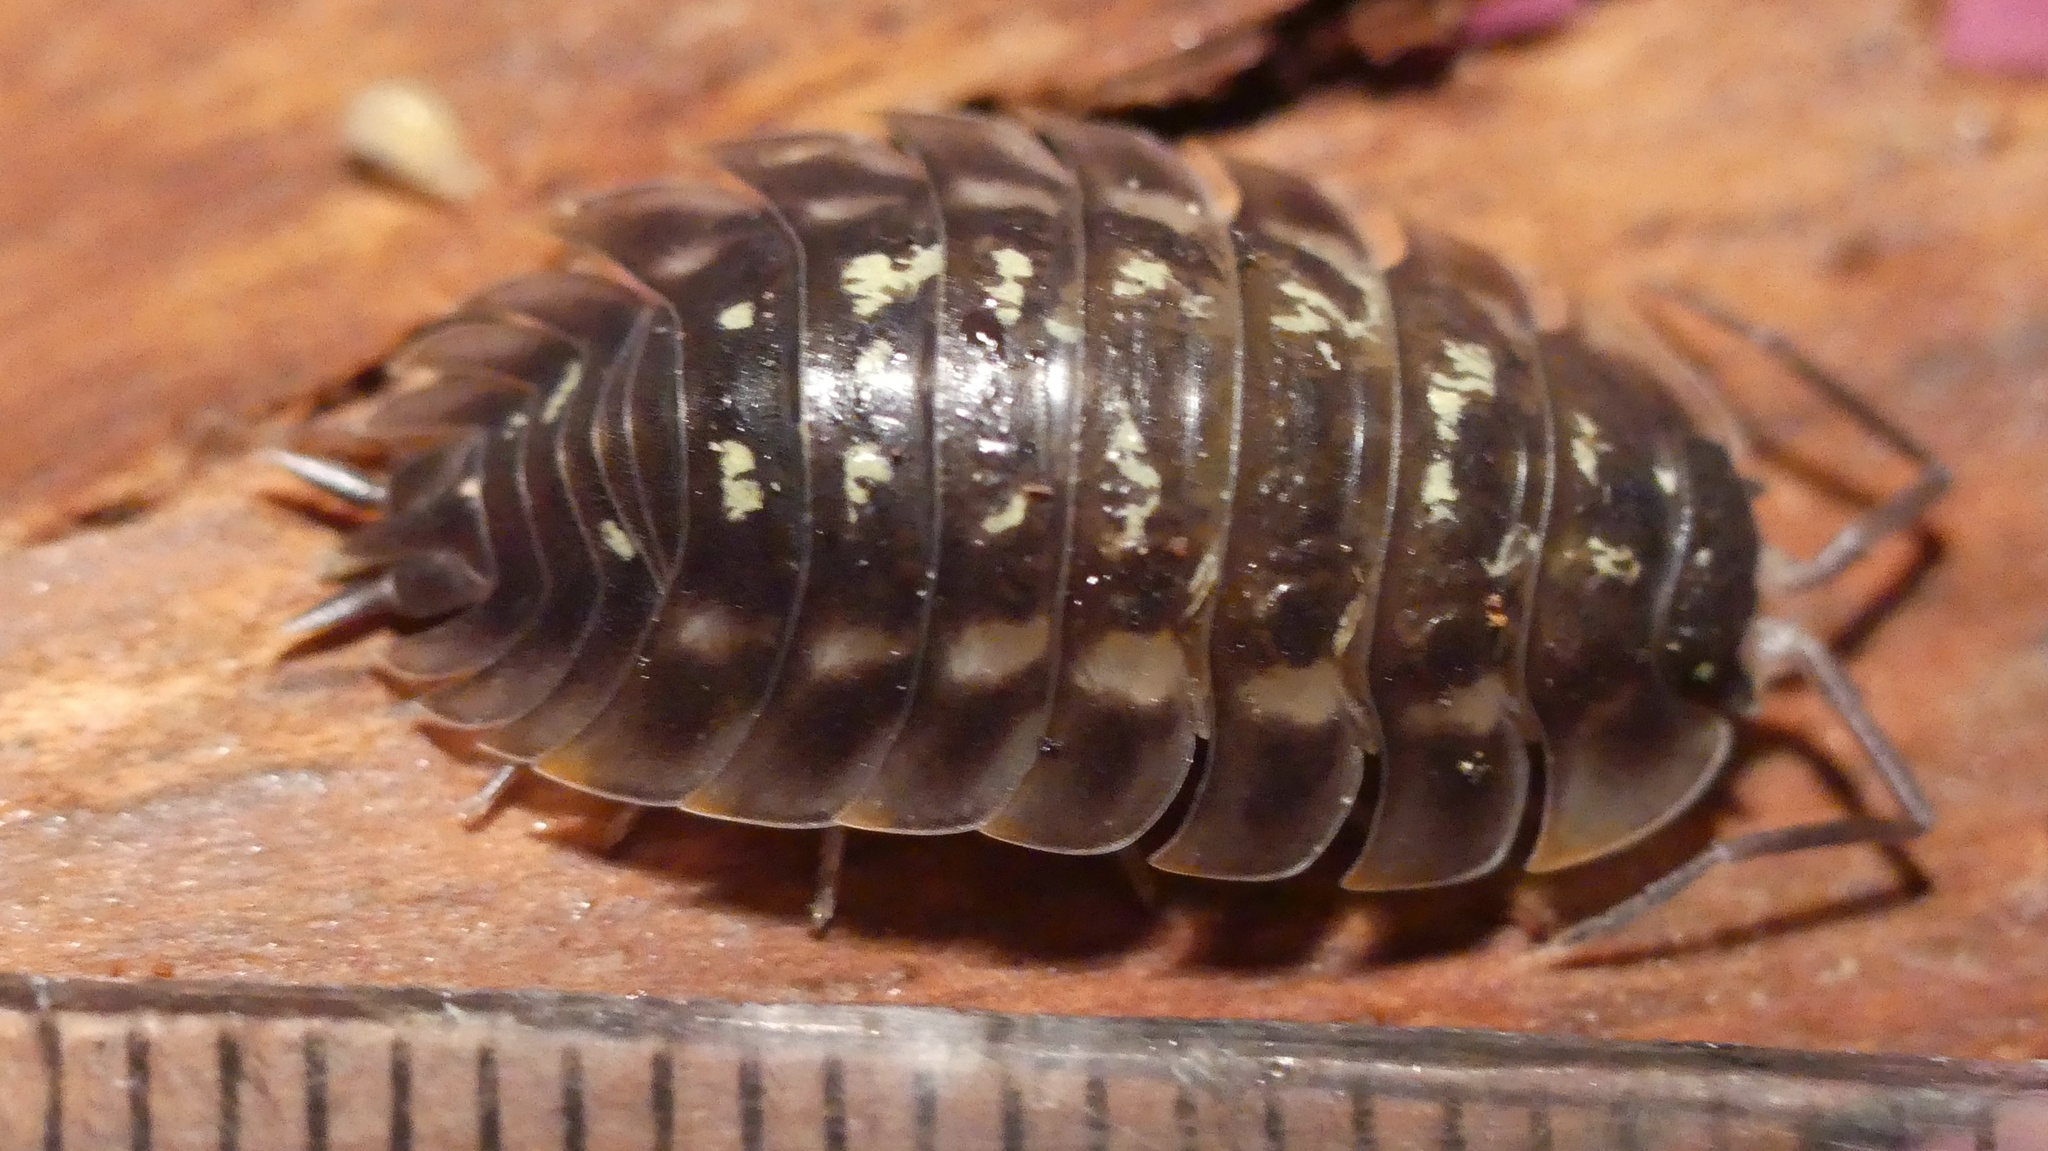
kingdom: Animalia
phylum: Arthropoda
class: Malacostraca
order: Isopoda
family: Oniscidae
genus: Oniscus
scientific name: Oniscus asellus
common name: Common shiny woodlouse
